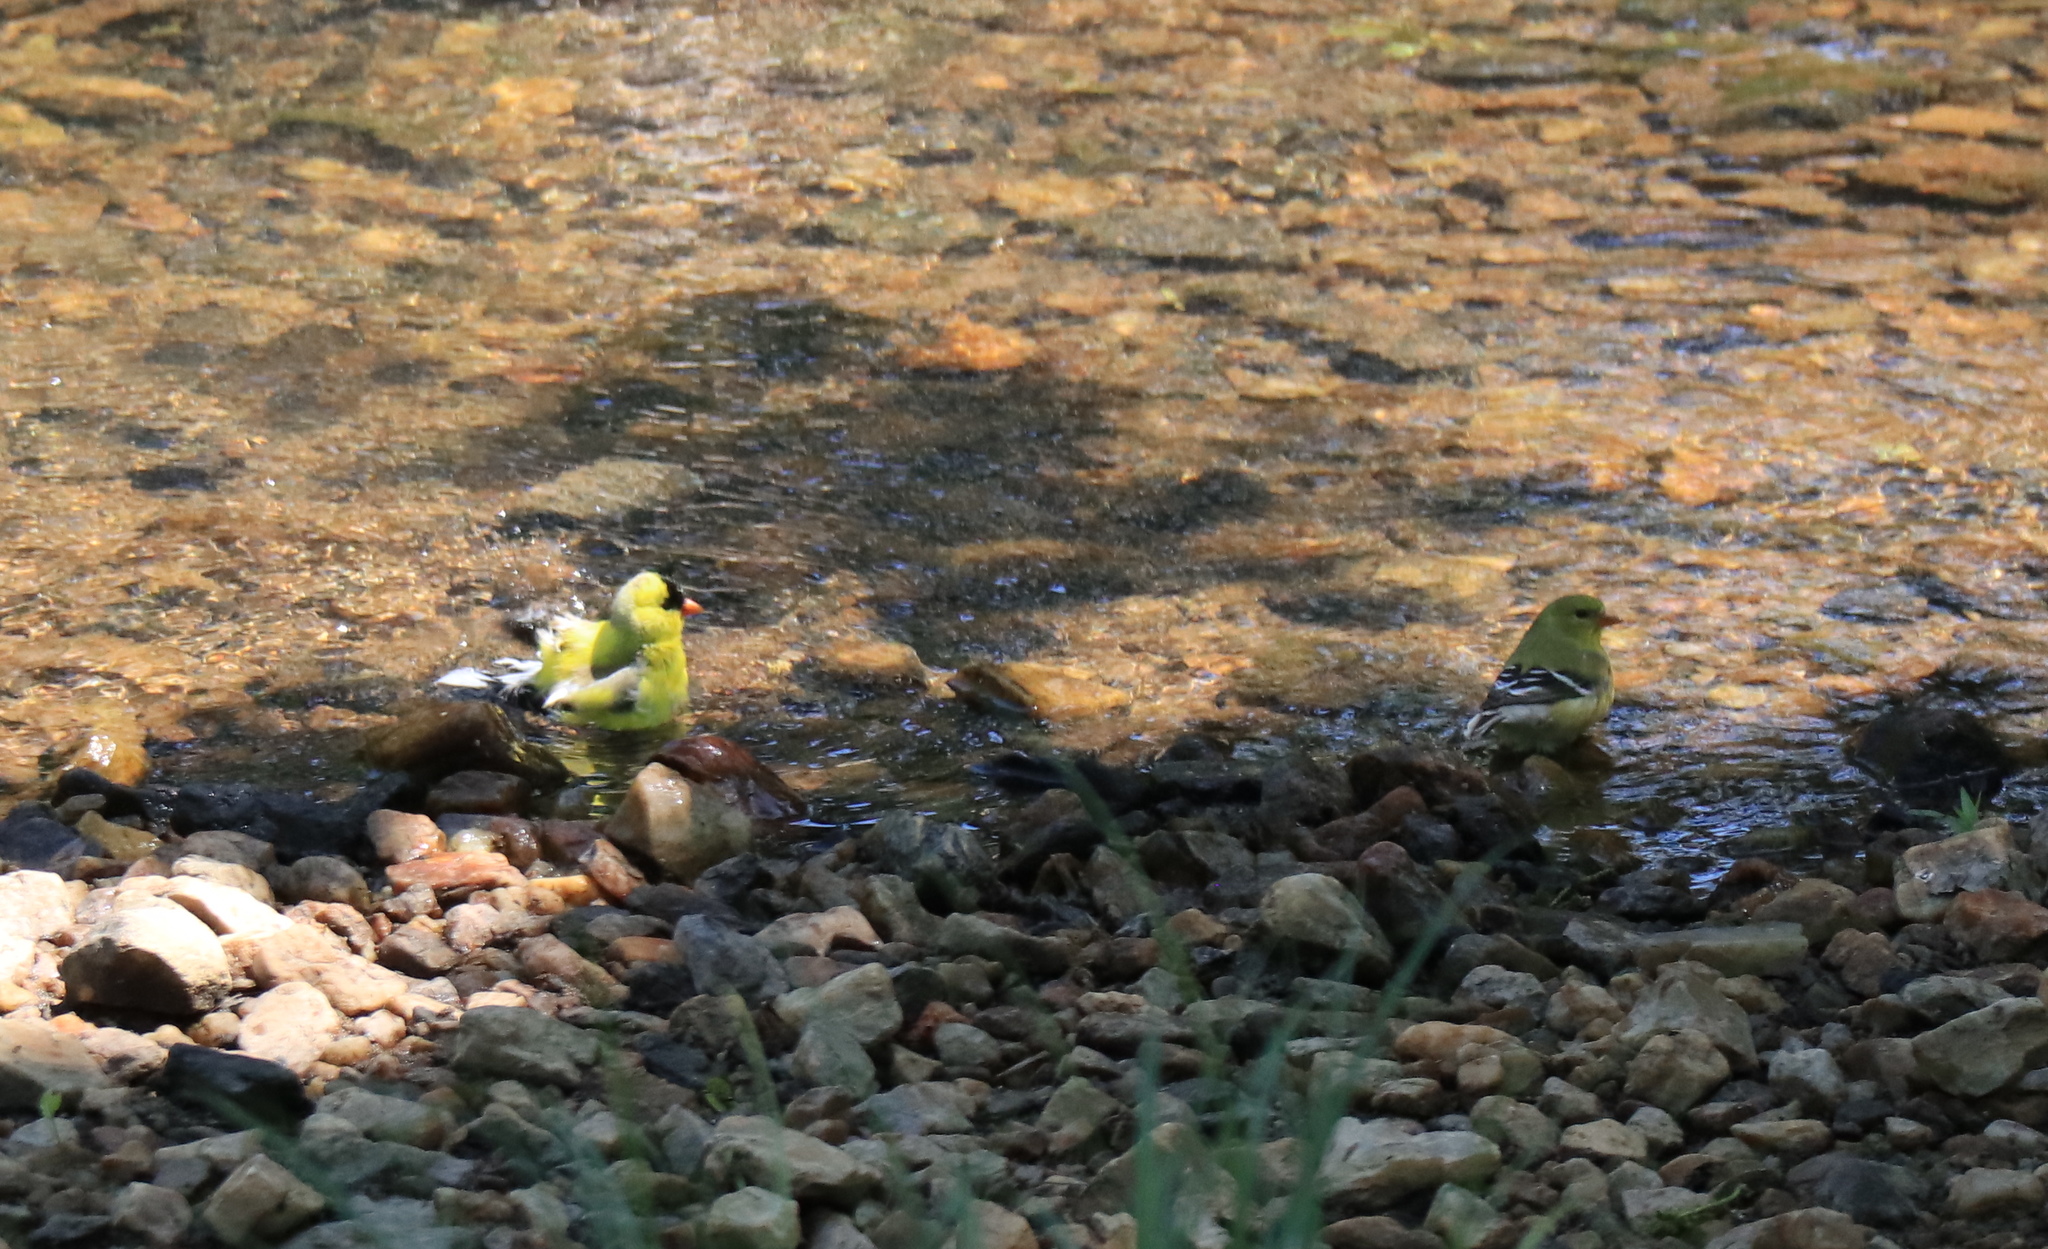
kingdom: Animalia
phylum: Chordata
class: Aves
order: Passeriformes
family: Fringillidae
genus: Spinus
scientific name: Spinus tristis
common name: American goldfinch
